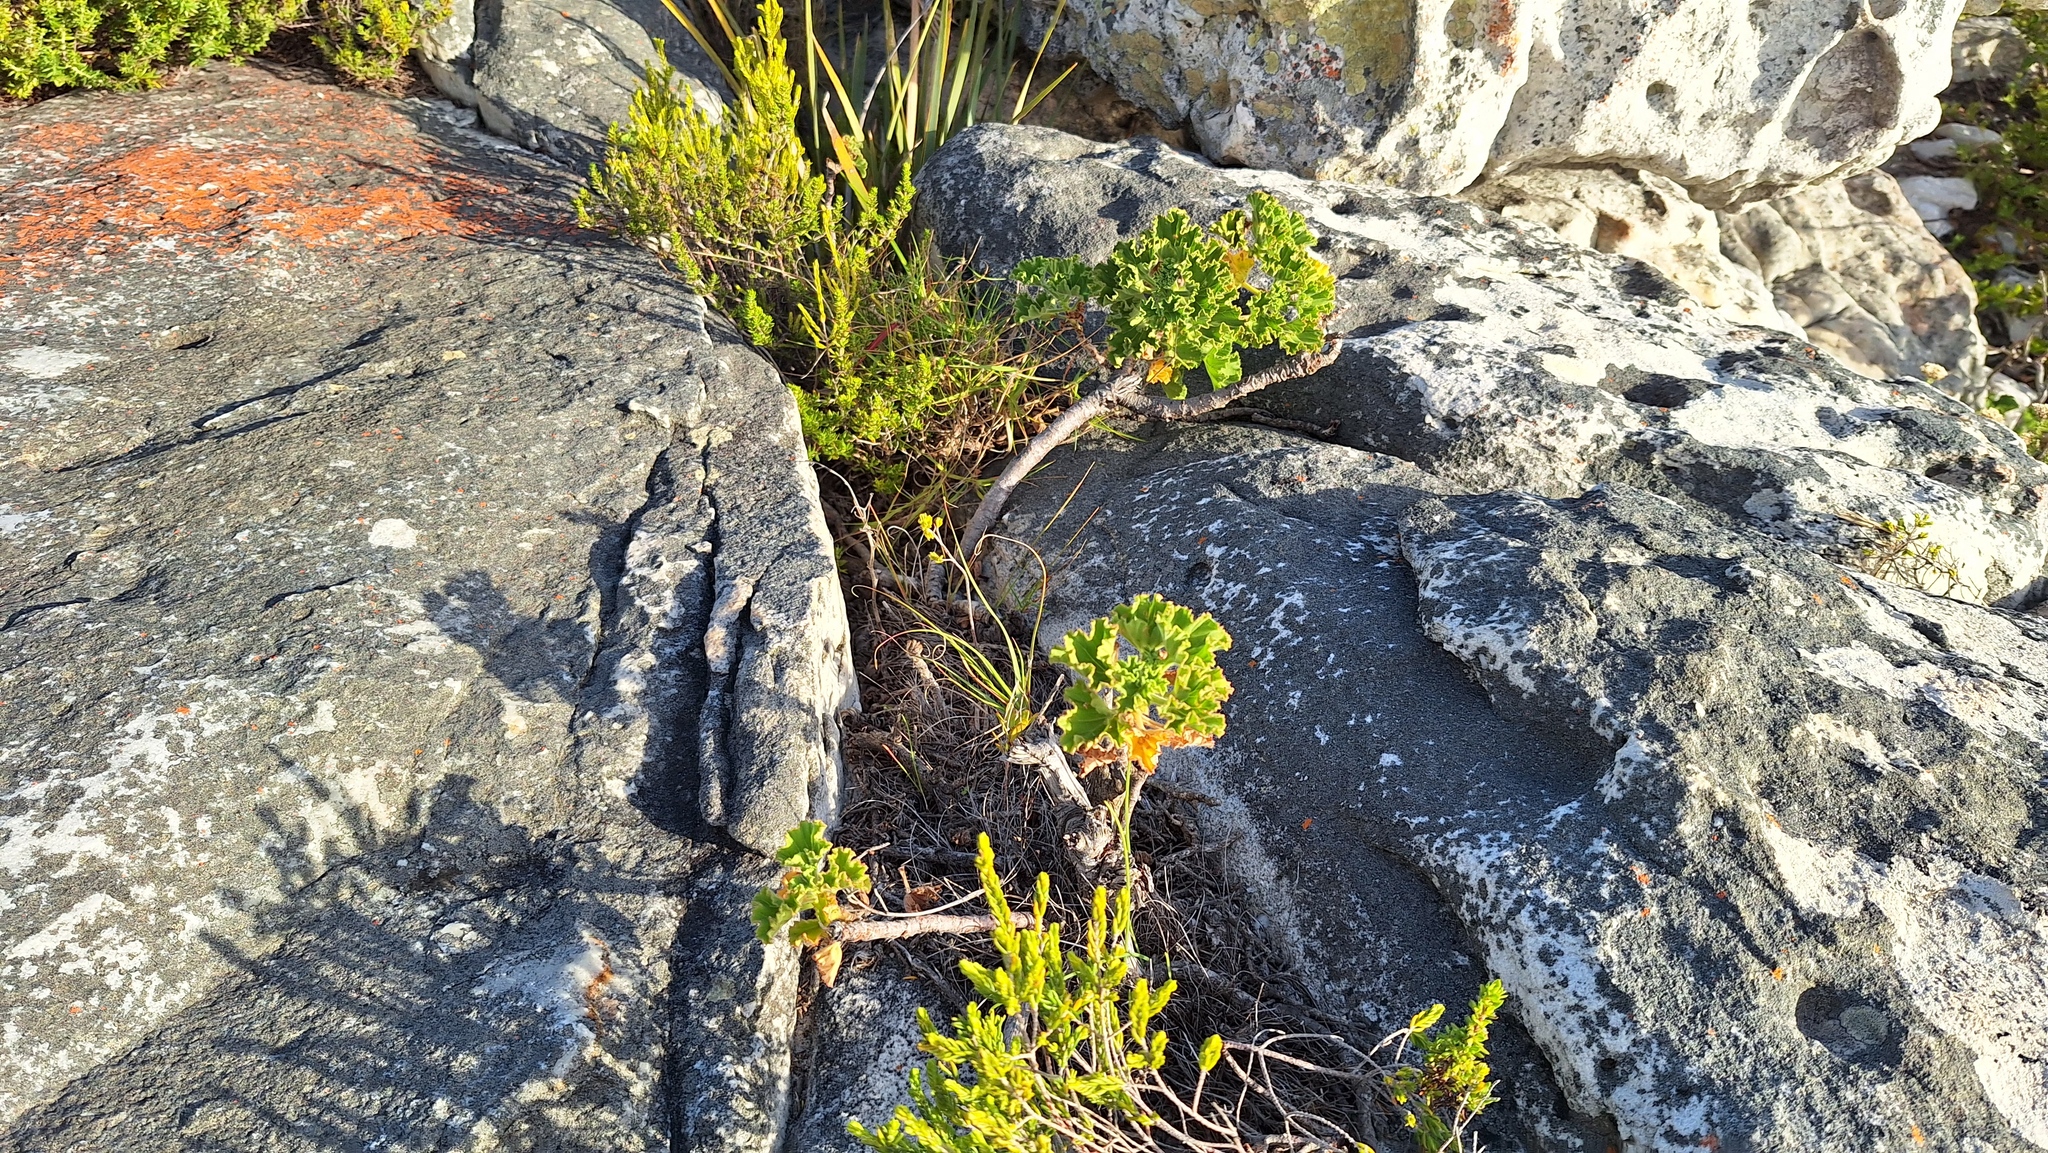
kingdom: Plantae
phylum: Tracheophyta
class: Magnoliopsida
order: Geraniales
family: Geraniaceae
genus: Pelargonium
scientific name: Pelargonium cucullatum
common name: Tree pelargonium
